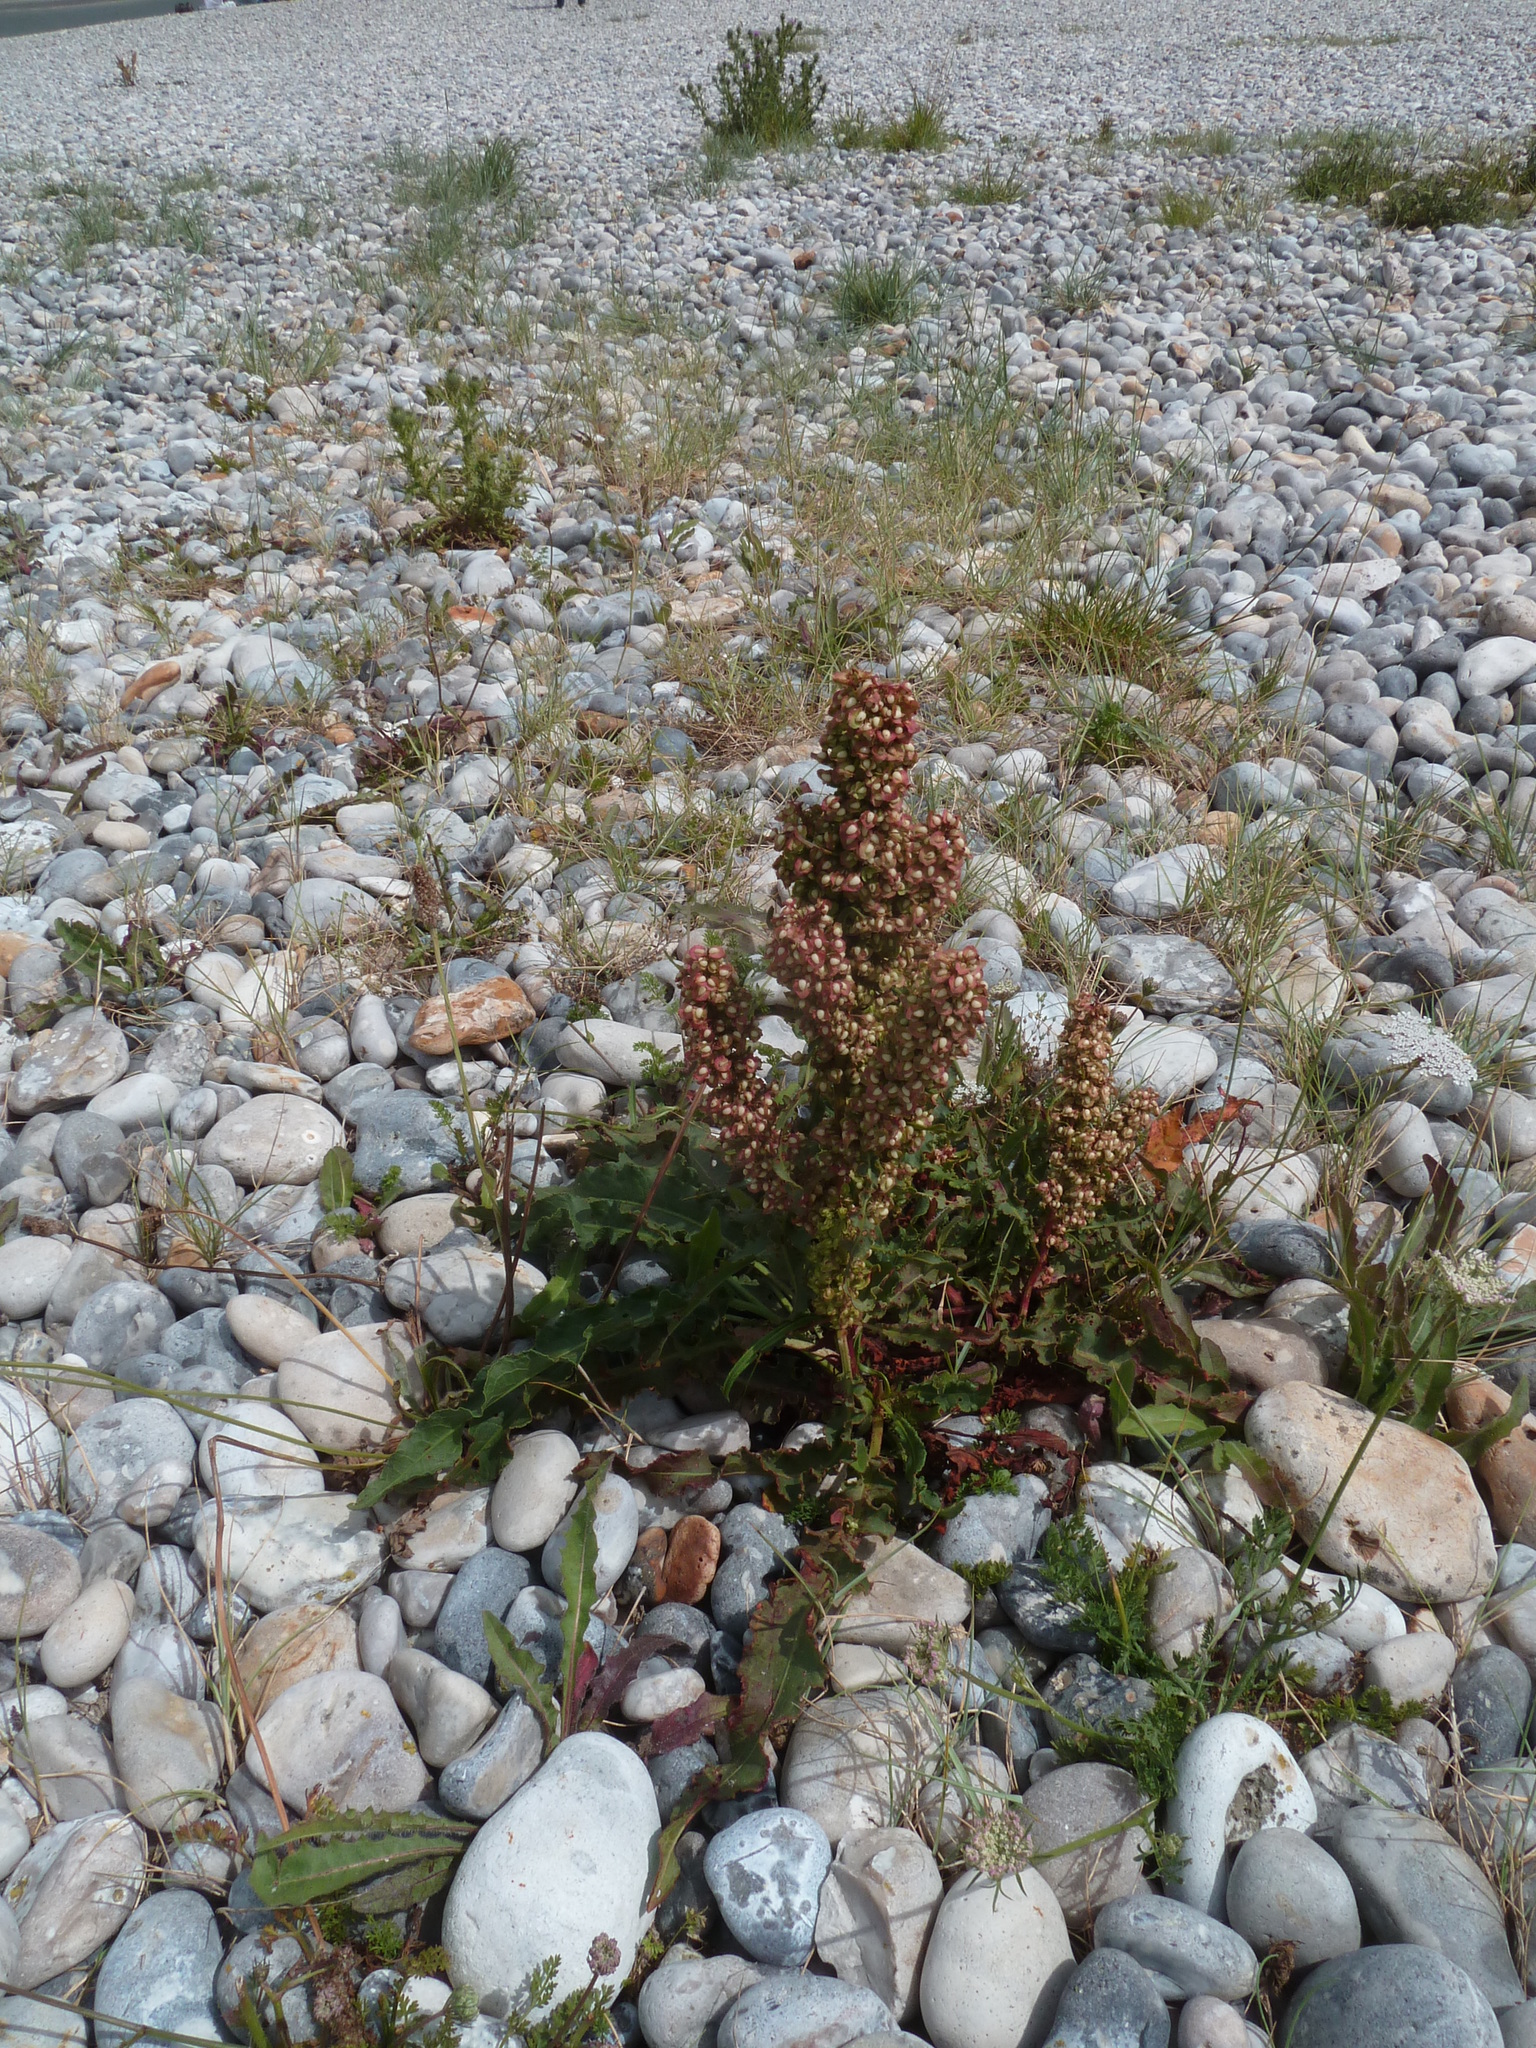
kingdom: Plantae
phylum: Tracheophyta
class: Magnoliopsida
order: Caryophyllales
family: Polygonaceae
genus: Rumex
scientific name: Rumex crispus
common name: Curled dock
